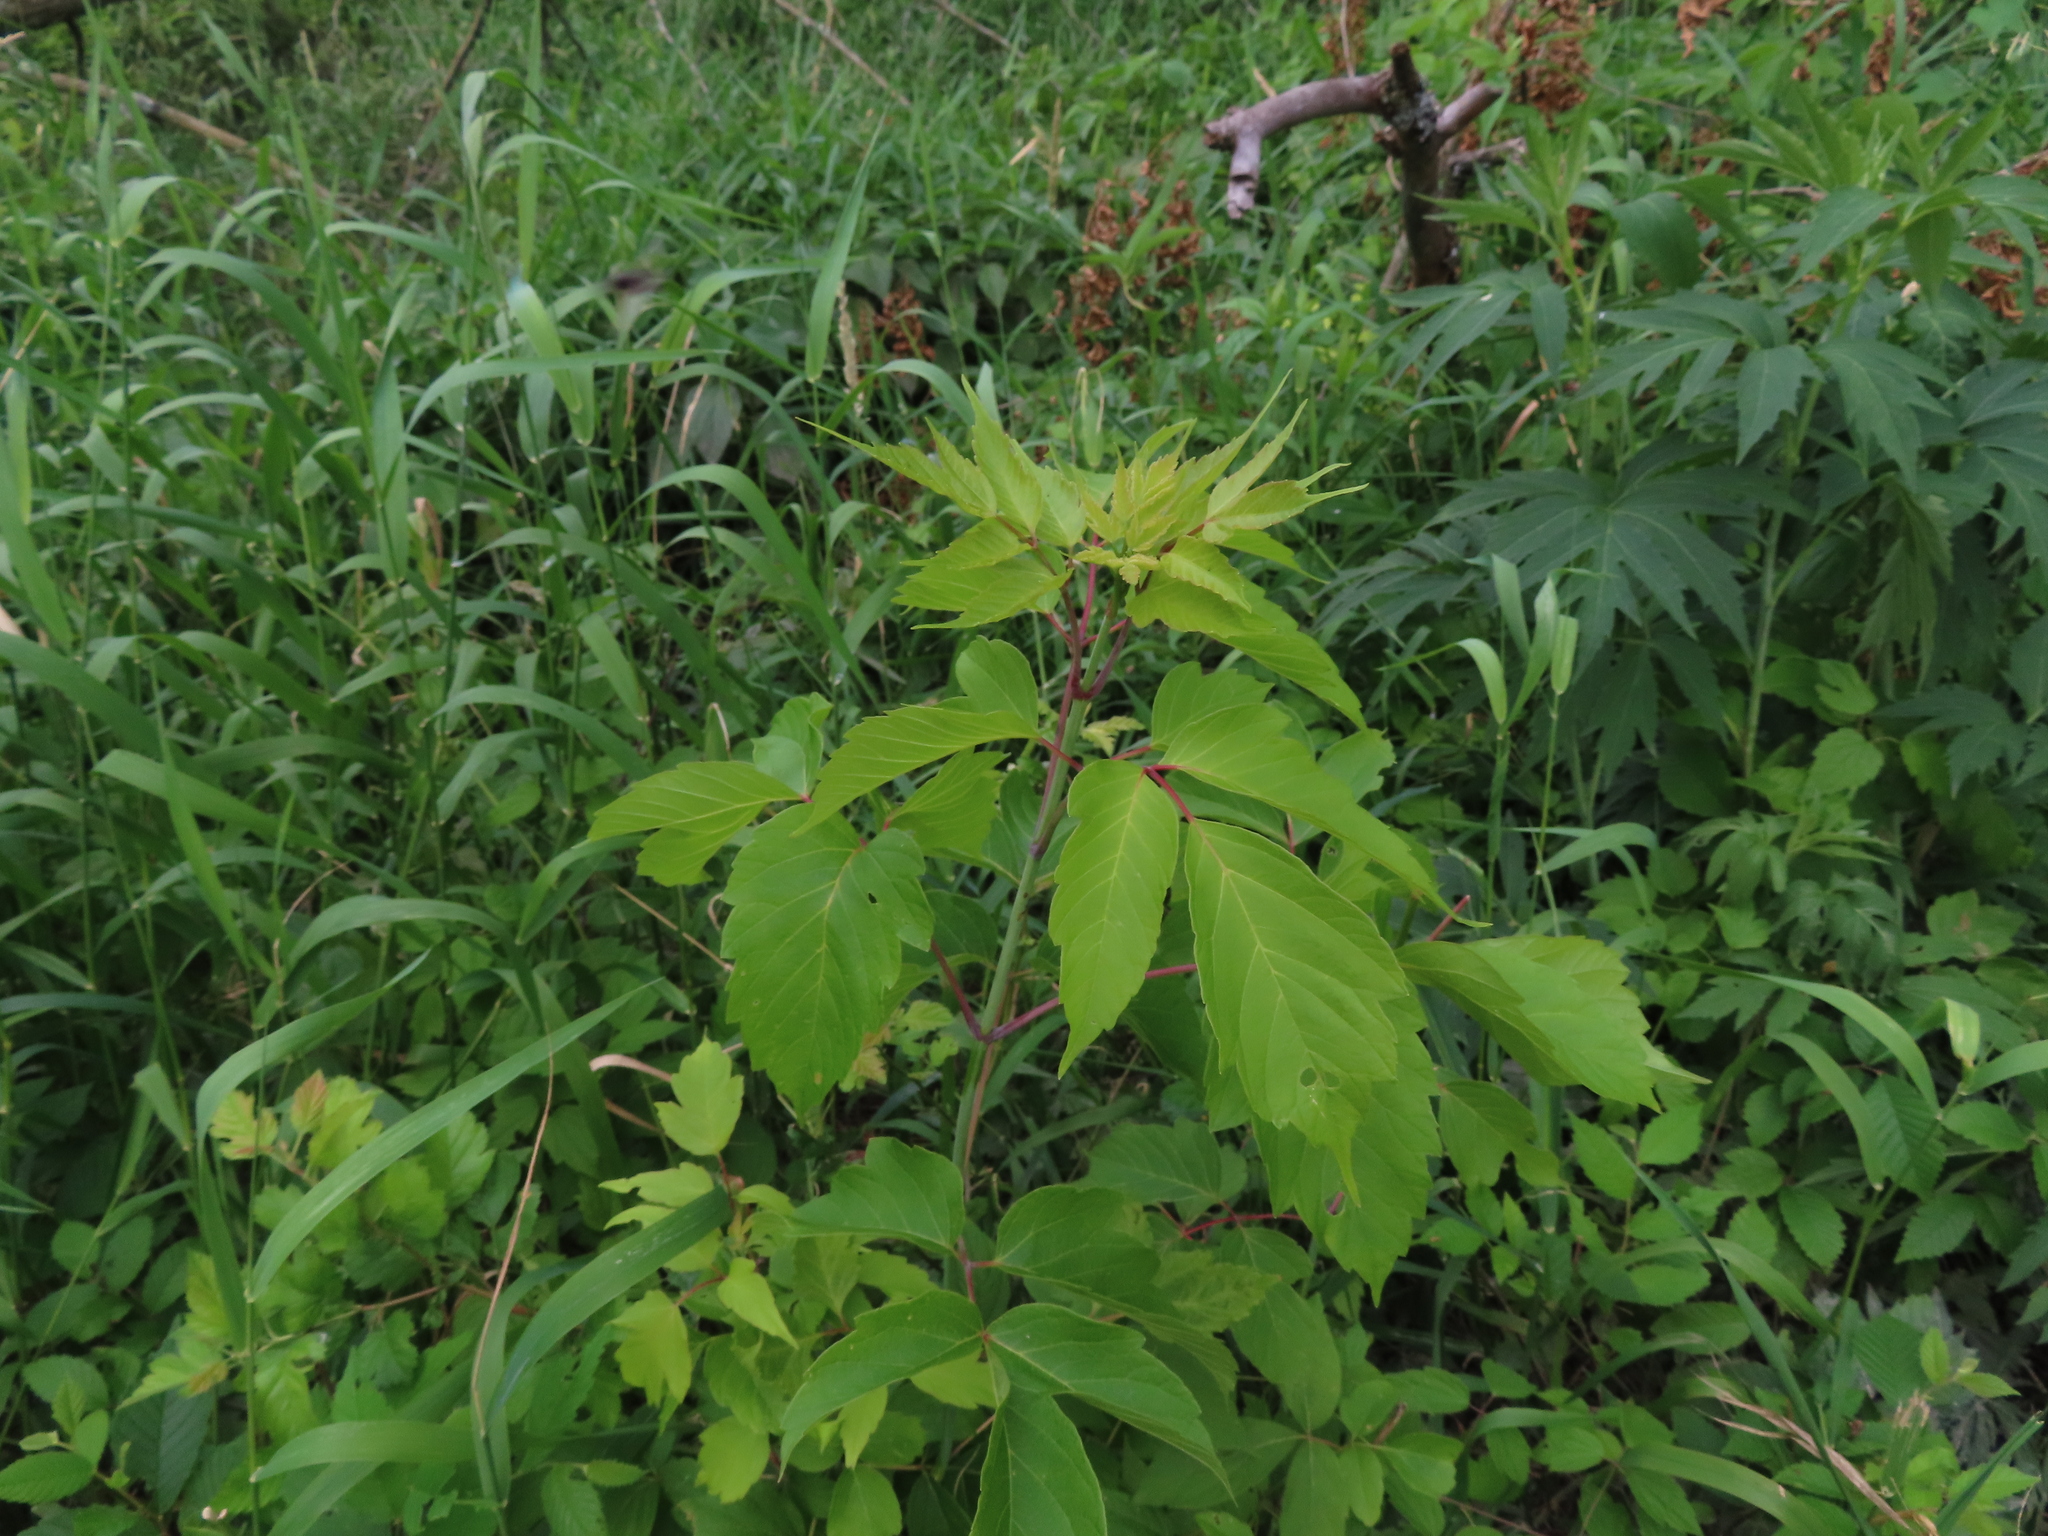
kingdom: Plantae
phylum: Tracheophyta
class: Magnoliopsida
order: Sapindales
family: Sapindaceae
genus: Acer
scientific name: Acer negundo
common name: Ashleaf maple
